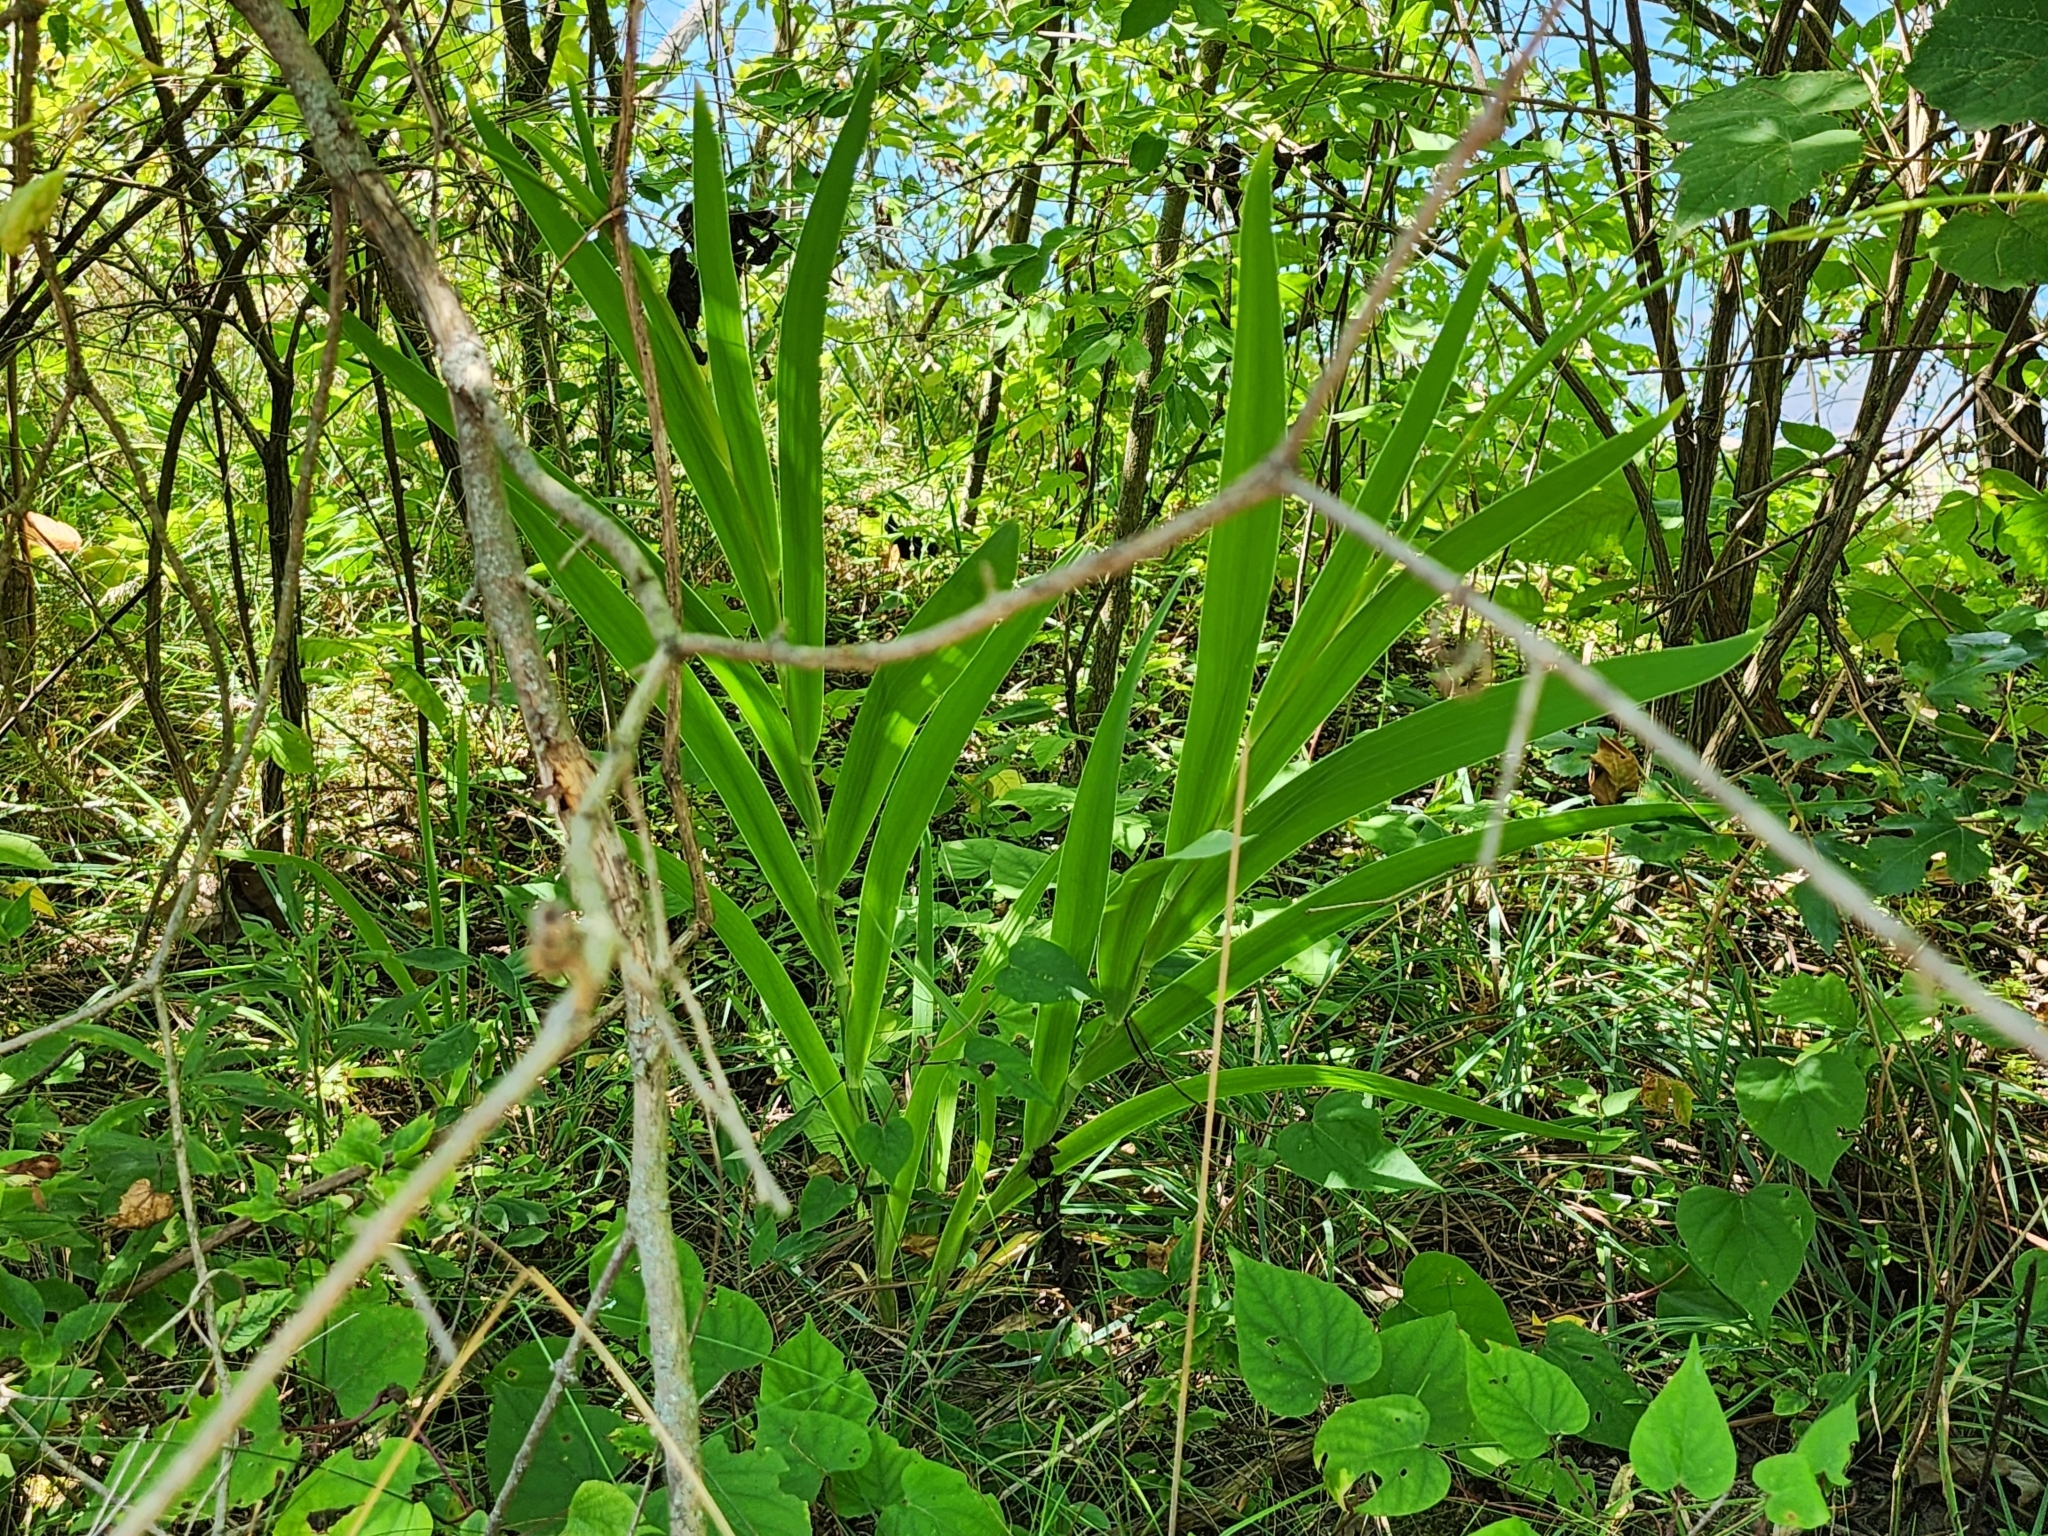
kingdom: Plantae
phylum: Tracheophyta
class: Liliopsida
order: Asparagales
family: Iridaceae
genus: Iris
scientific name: Iris domestica
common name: Belamcanda
